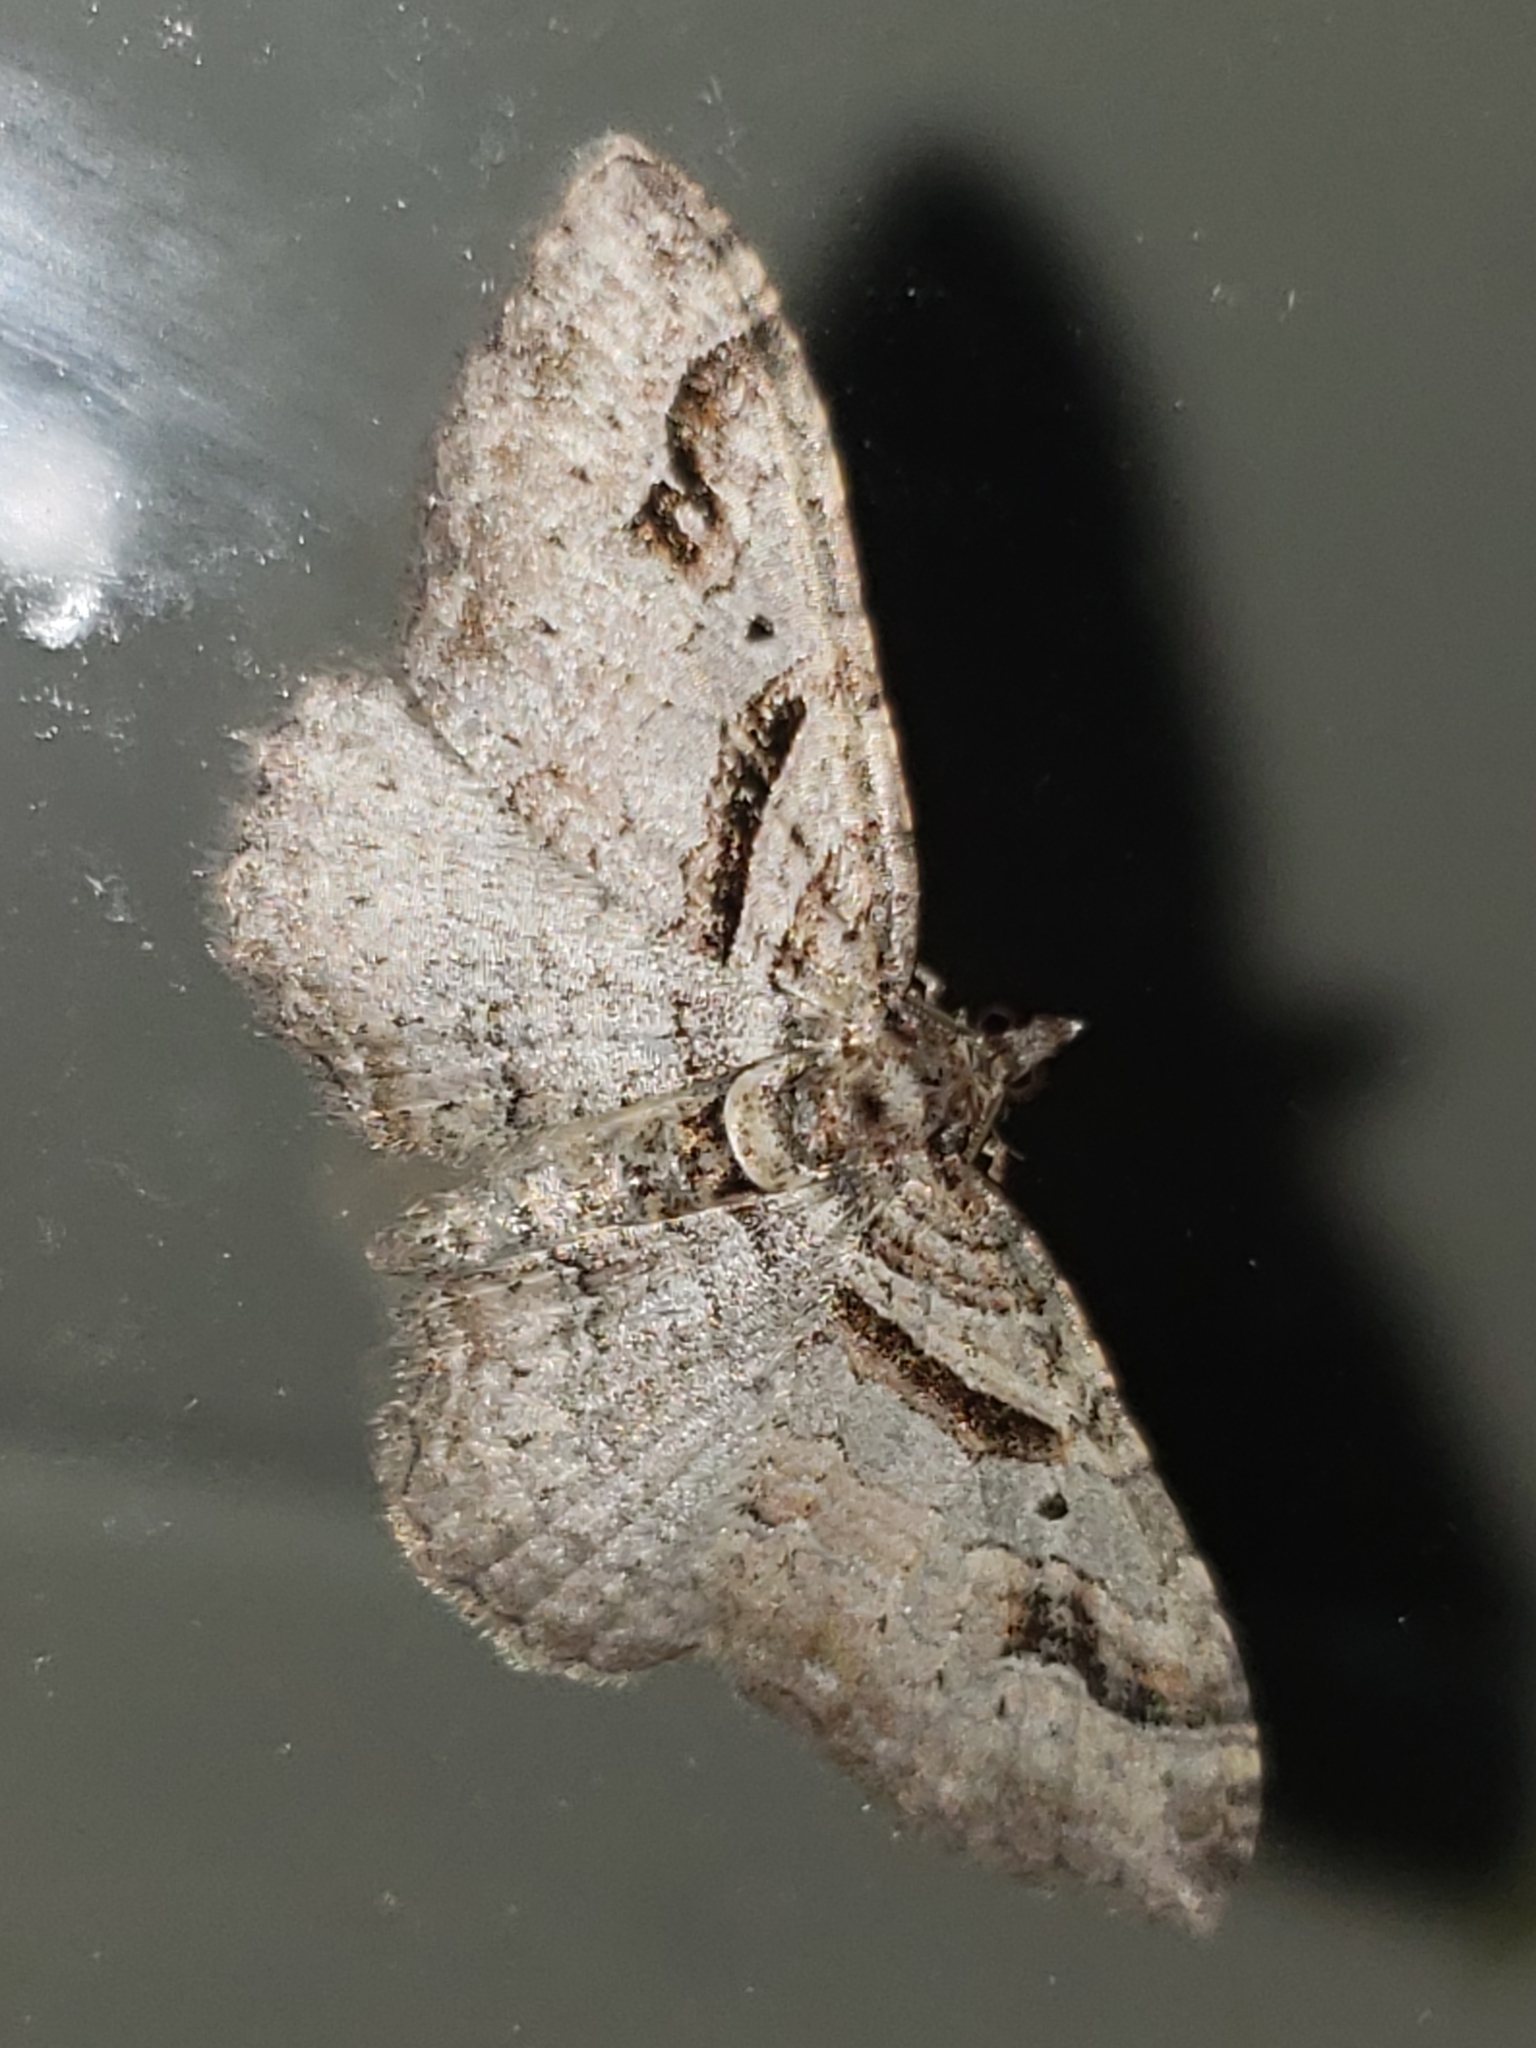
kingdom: Animalia
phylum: Arthropoda
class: Insecta
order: Lepidoptera
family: Geometridae
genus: Costaconvexa
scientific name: Costaconvexa centrostrigaria
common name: Bent-line carpet
